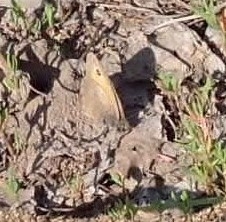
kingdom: Animalia
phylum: Arthropoda
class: Insecta
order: Lepidoptera
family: Nymphalidae
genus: Hyponephele
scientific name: Hyponephele lycaon
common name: Dusky meadow brown
